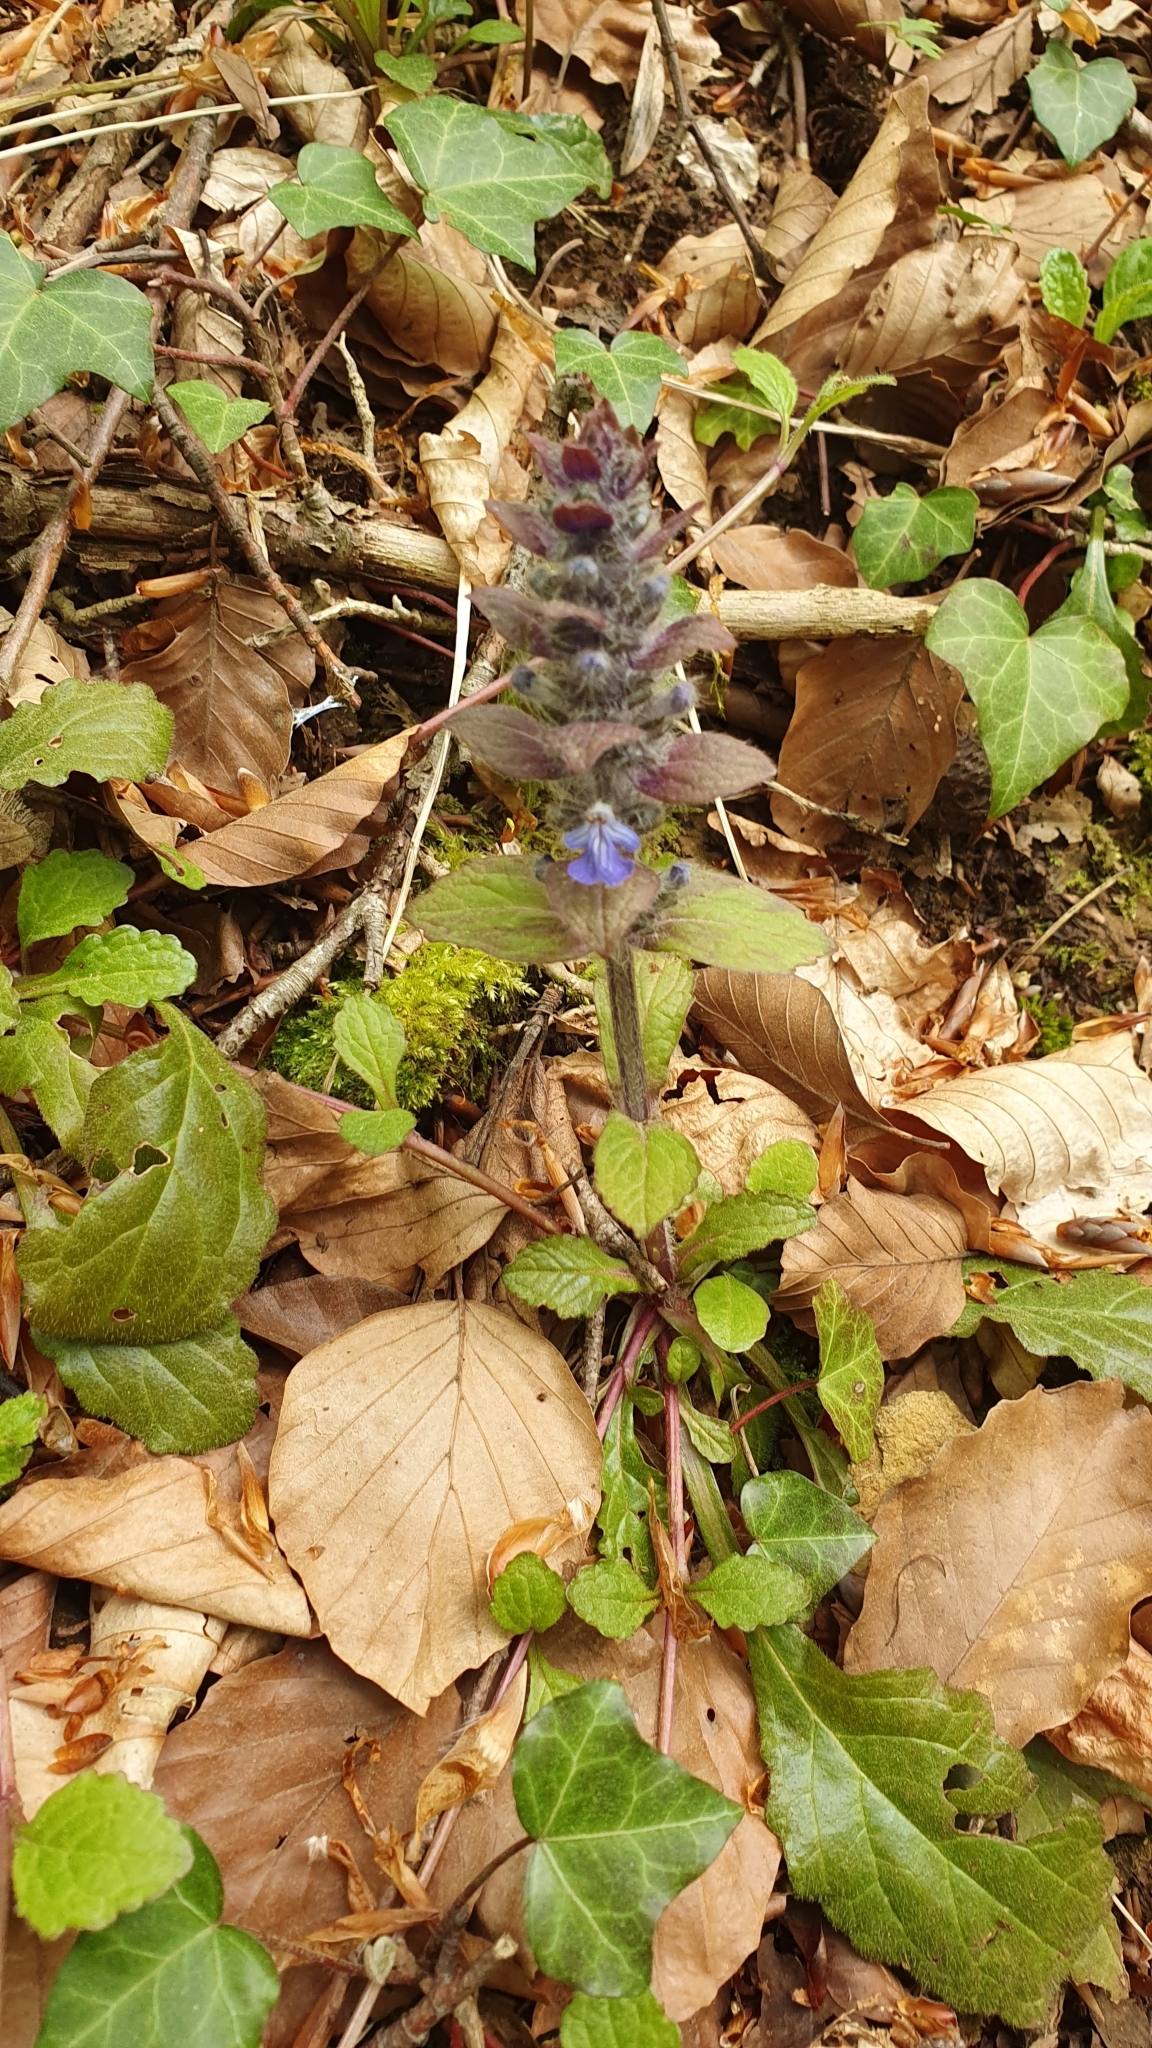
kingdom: Plantae
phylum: Tracheophyta
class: Magnoliopsida
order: Lamiales
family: Lamiaceae
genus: Ajuga
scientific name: Ajuga reptans
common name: Bugle
